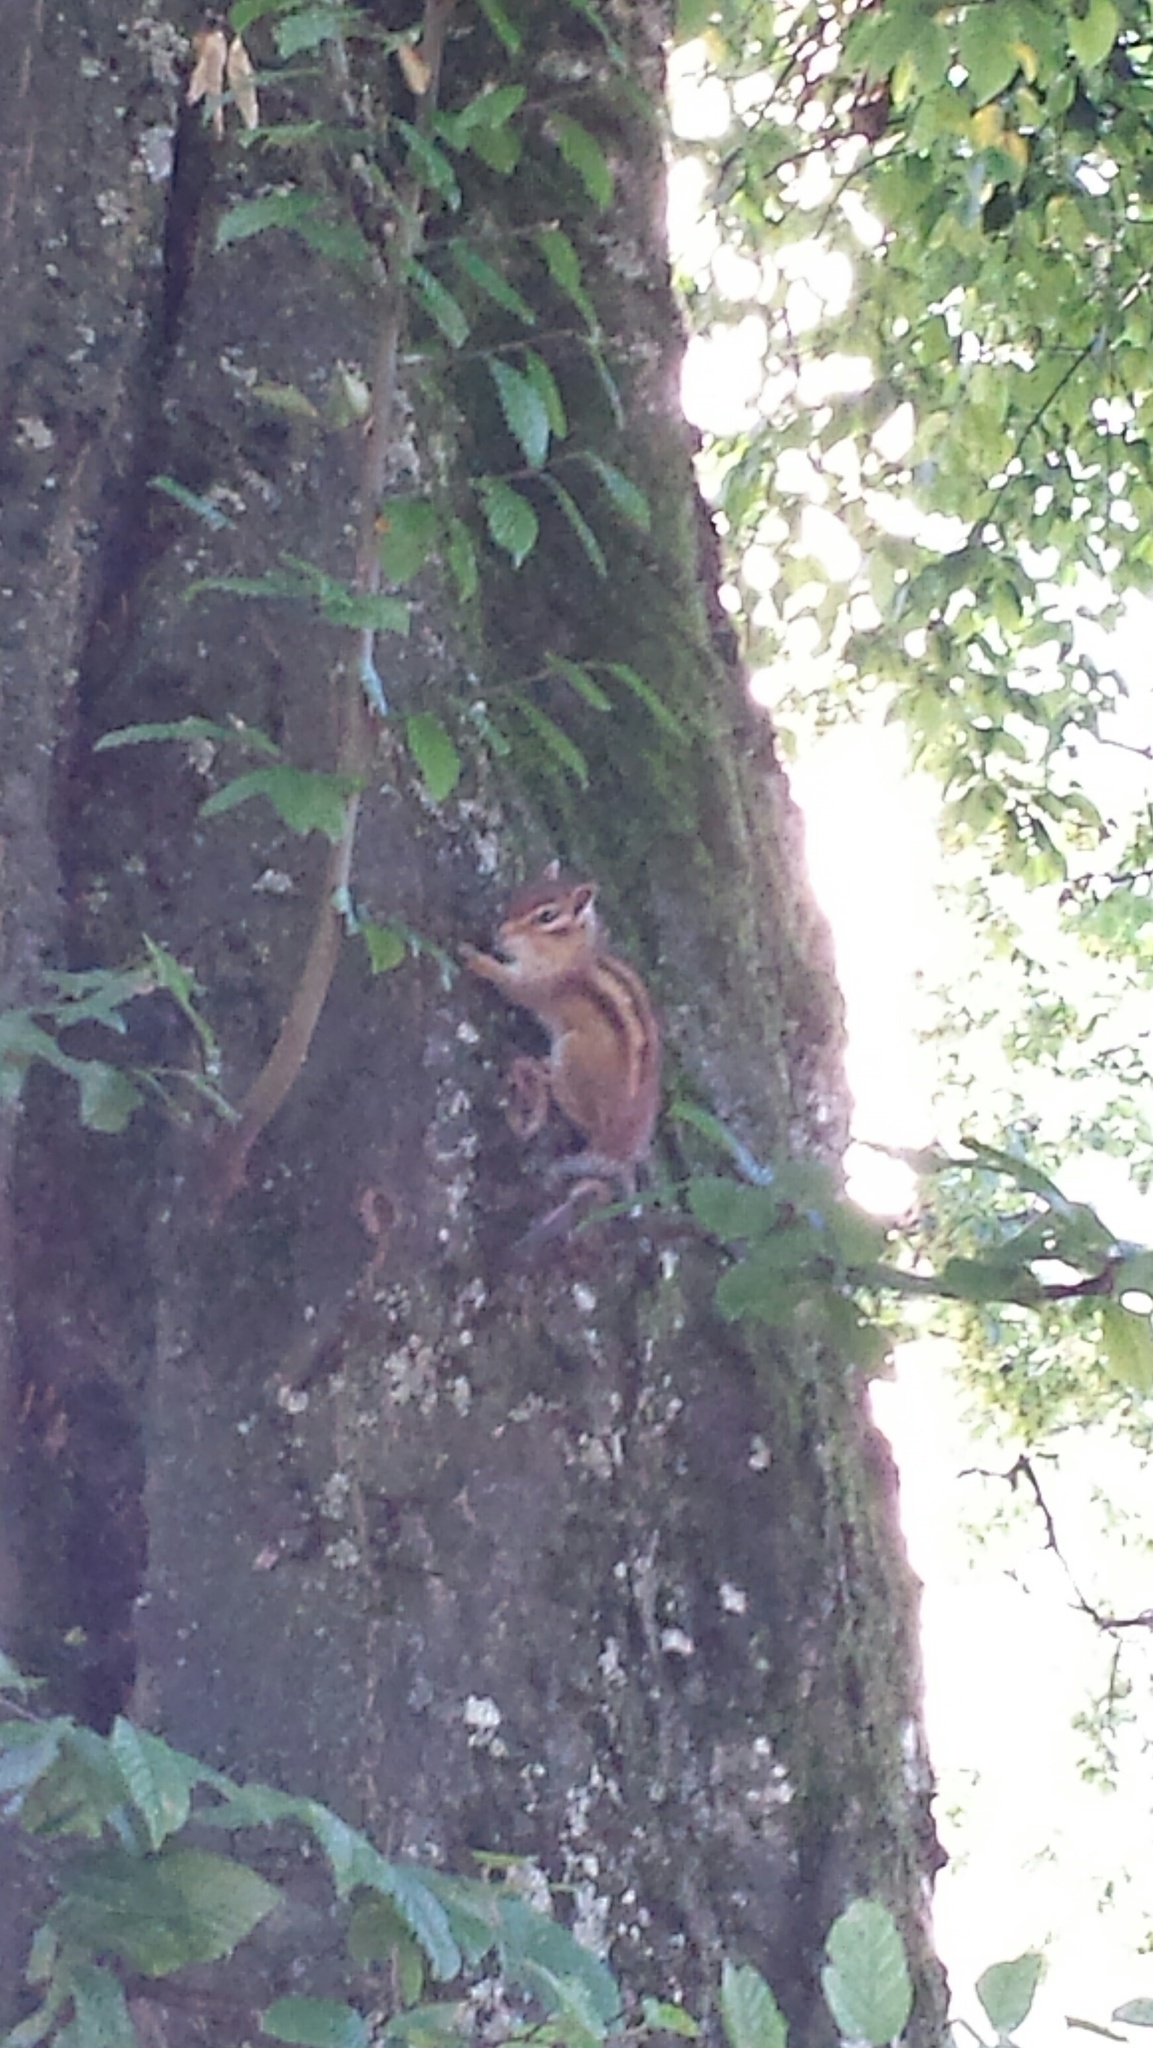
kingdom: Animalia
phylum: Chordata
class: Mammalia
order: Rodentia
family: Sciuridae
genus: Tamias
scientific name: Tamias sibiricus
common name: Siberian chipmunk
